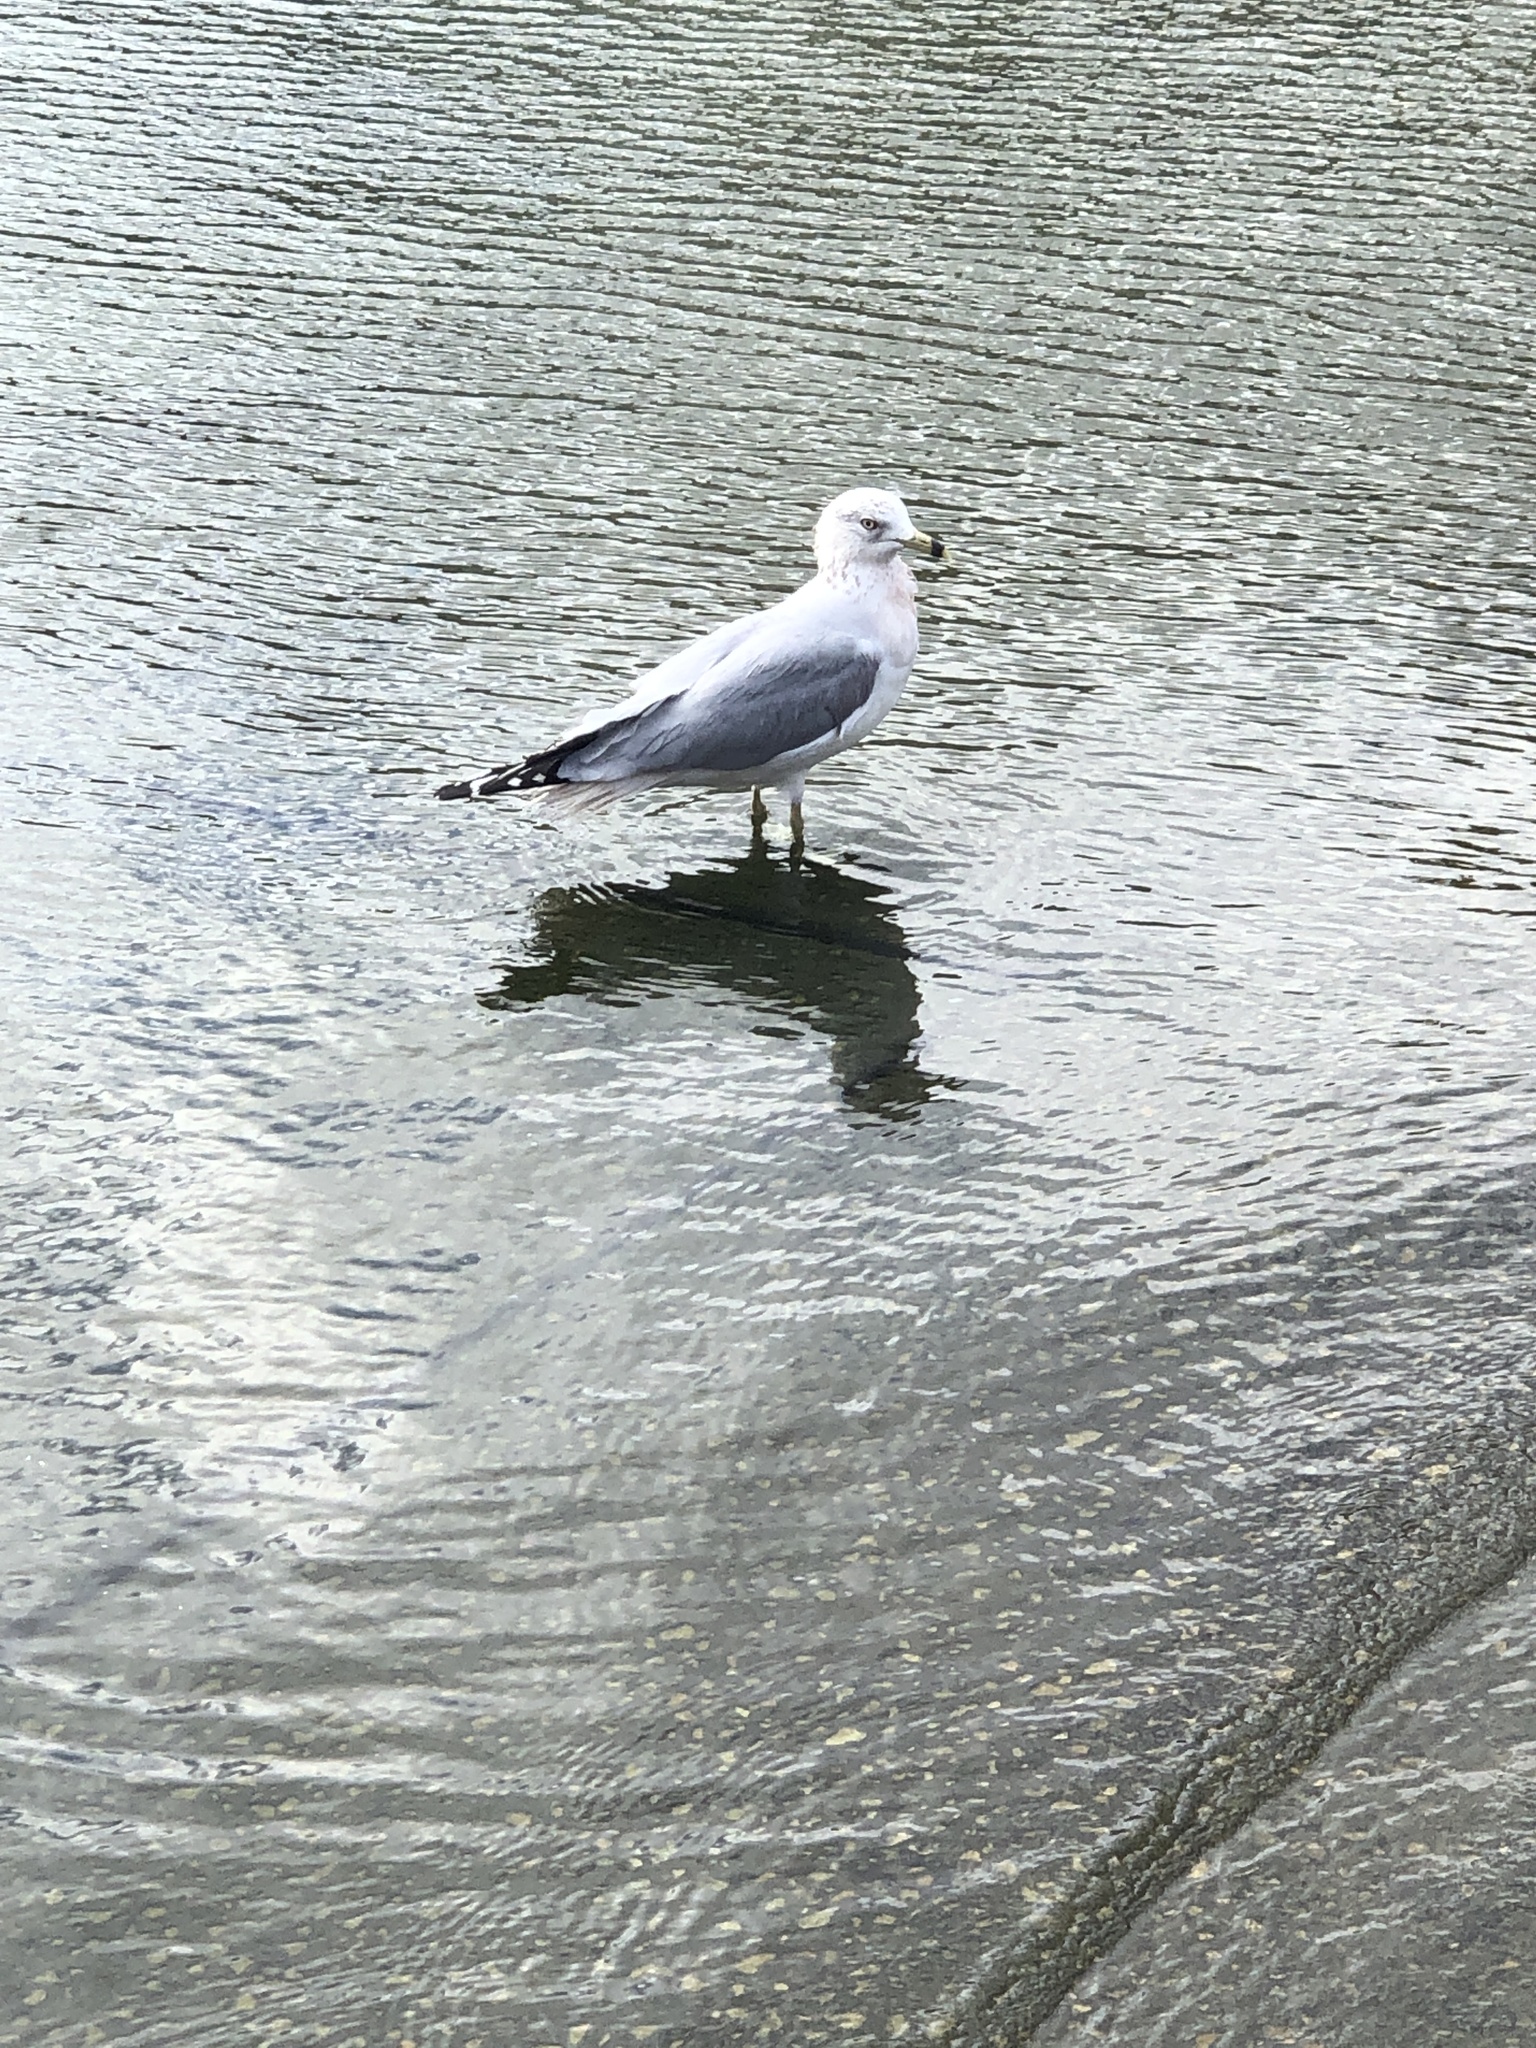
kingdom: Animalia
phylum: Chordata
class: Aves
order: Charadriiformes
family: Laridae
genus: Larus
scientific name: Larus delawarensis
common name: Ring-billed gull
